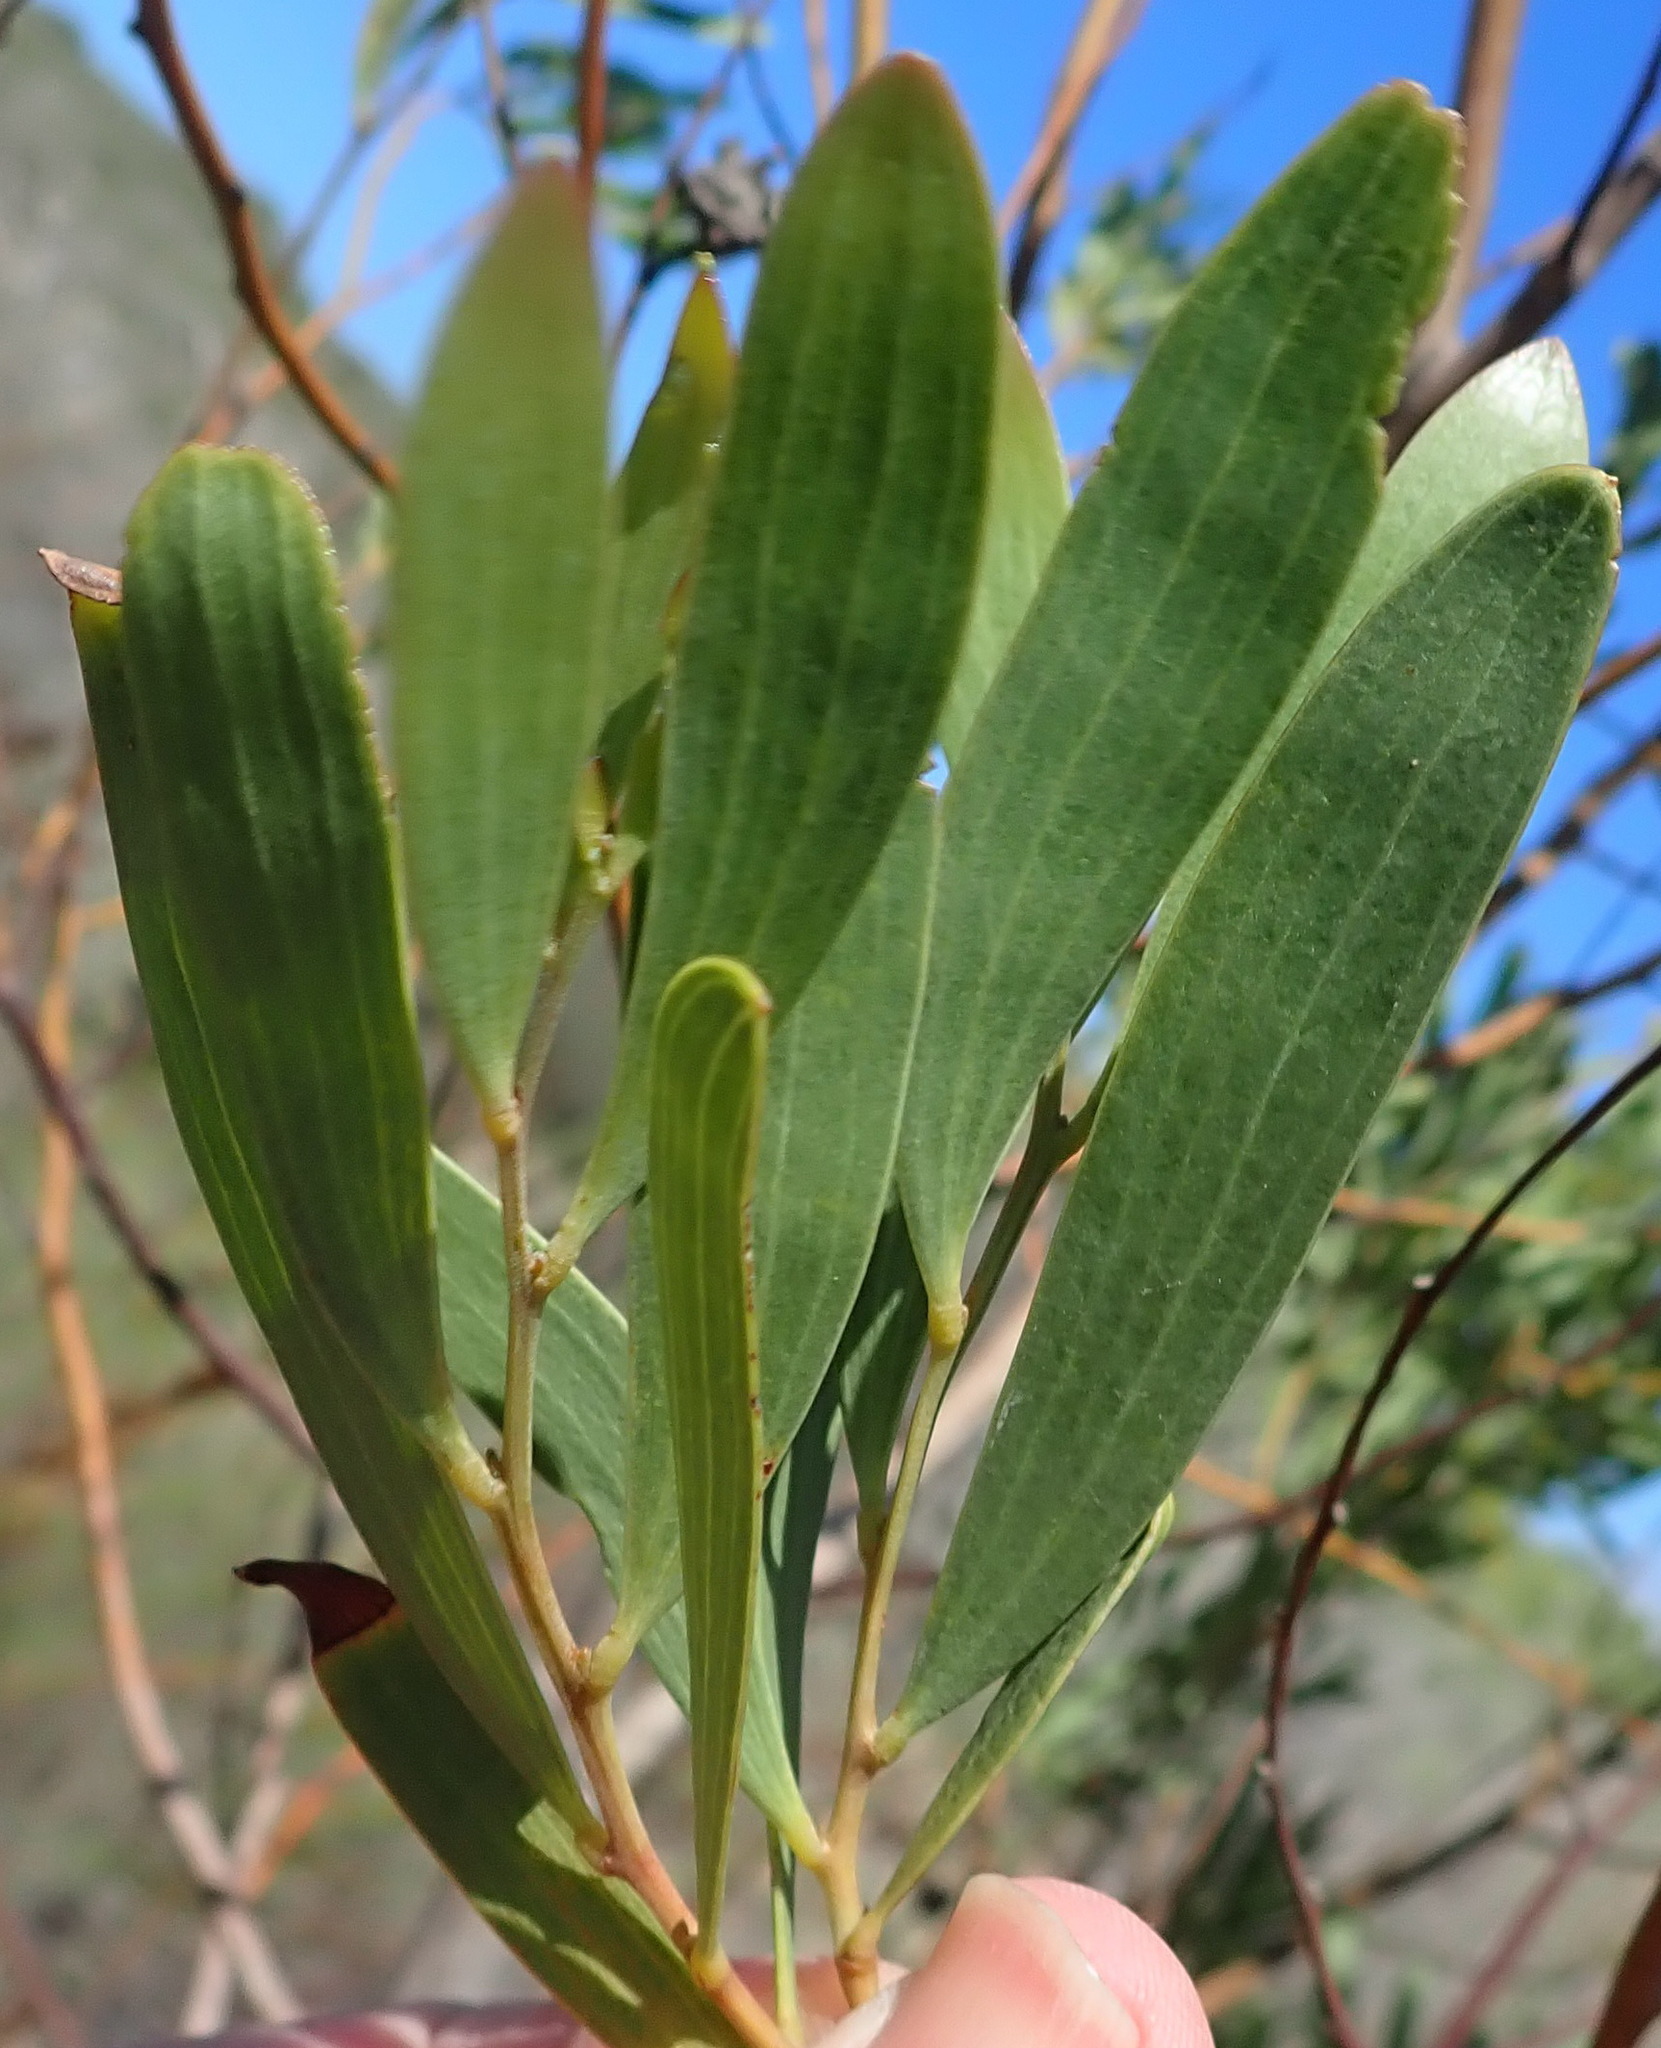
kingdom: Plantae
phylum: Tracheophyta
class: Magnoliopsida
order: Fabales
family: Fabaceae
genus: Acacia
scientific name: Acacia cyclops
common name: Coastal wattle
